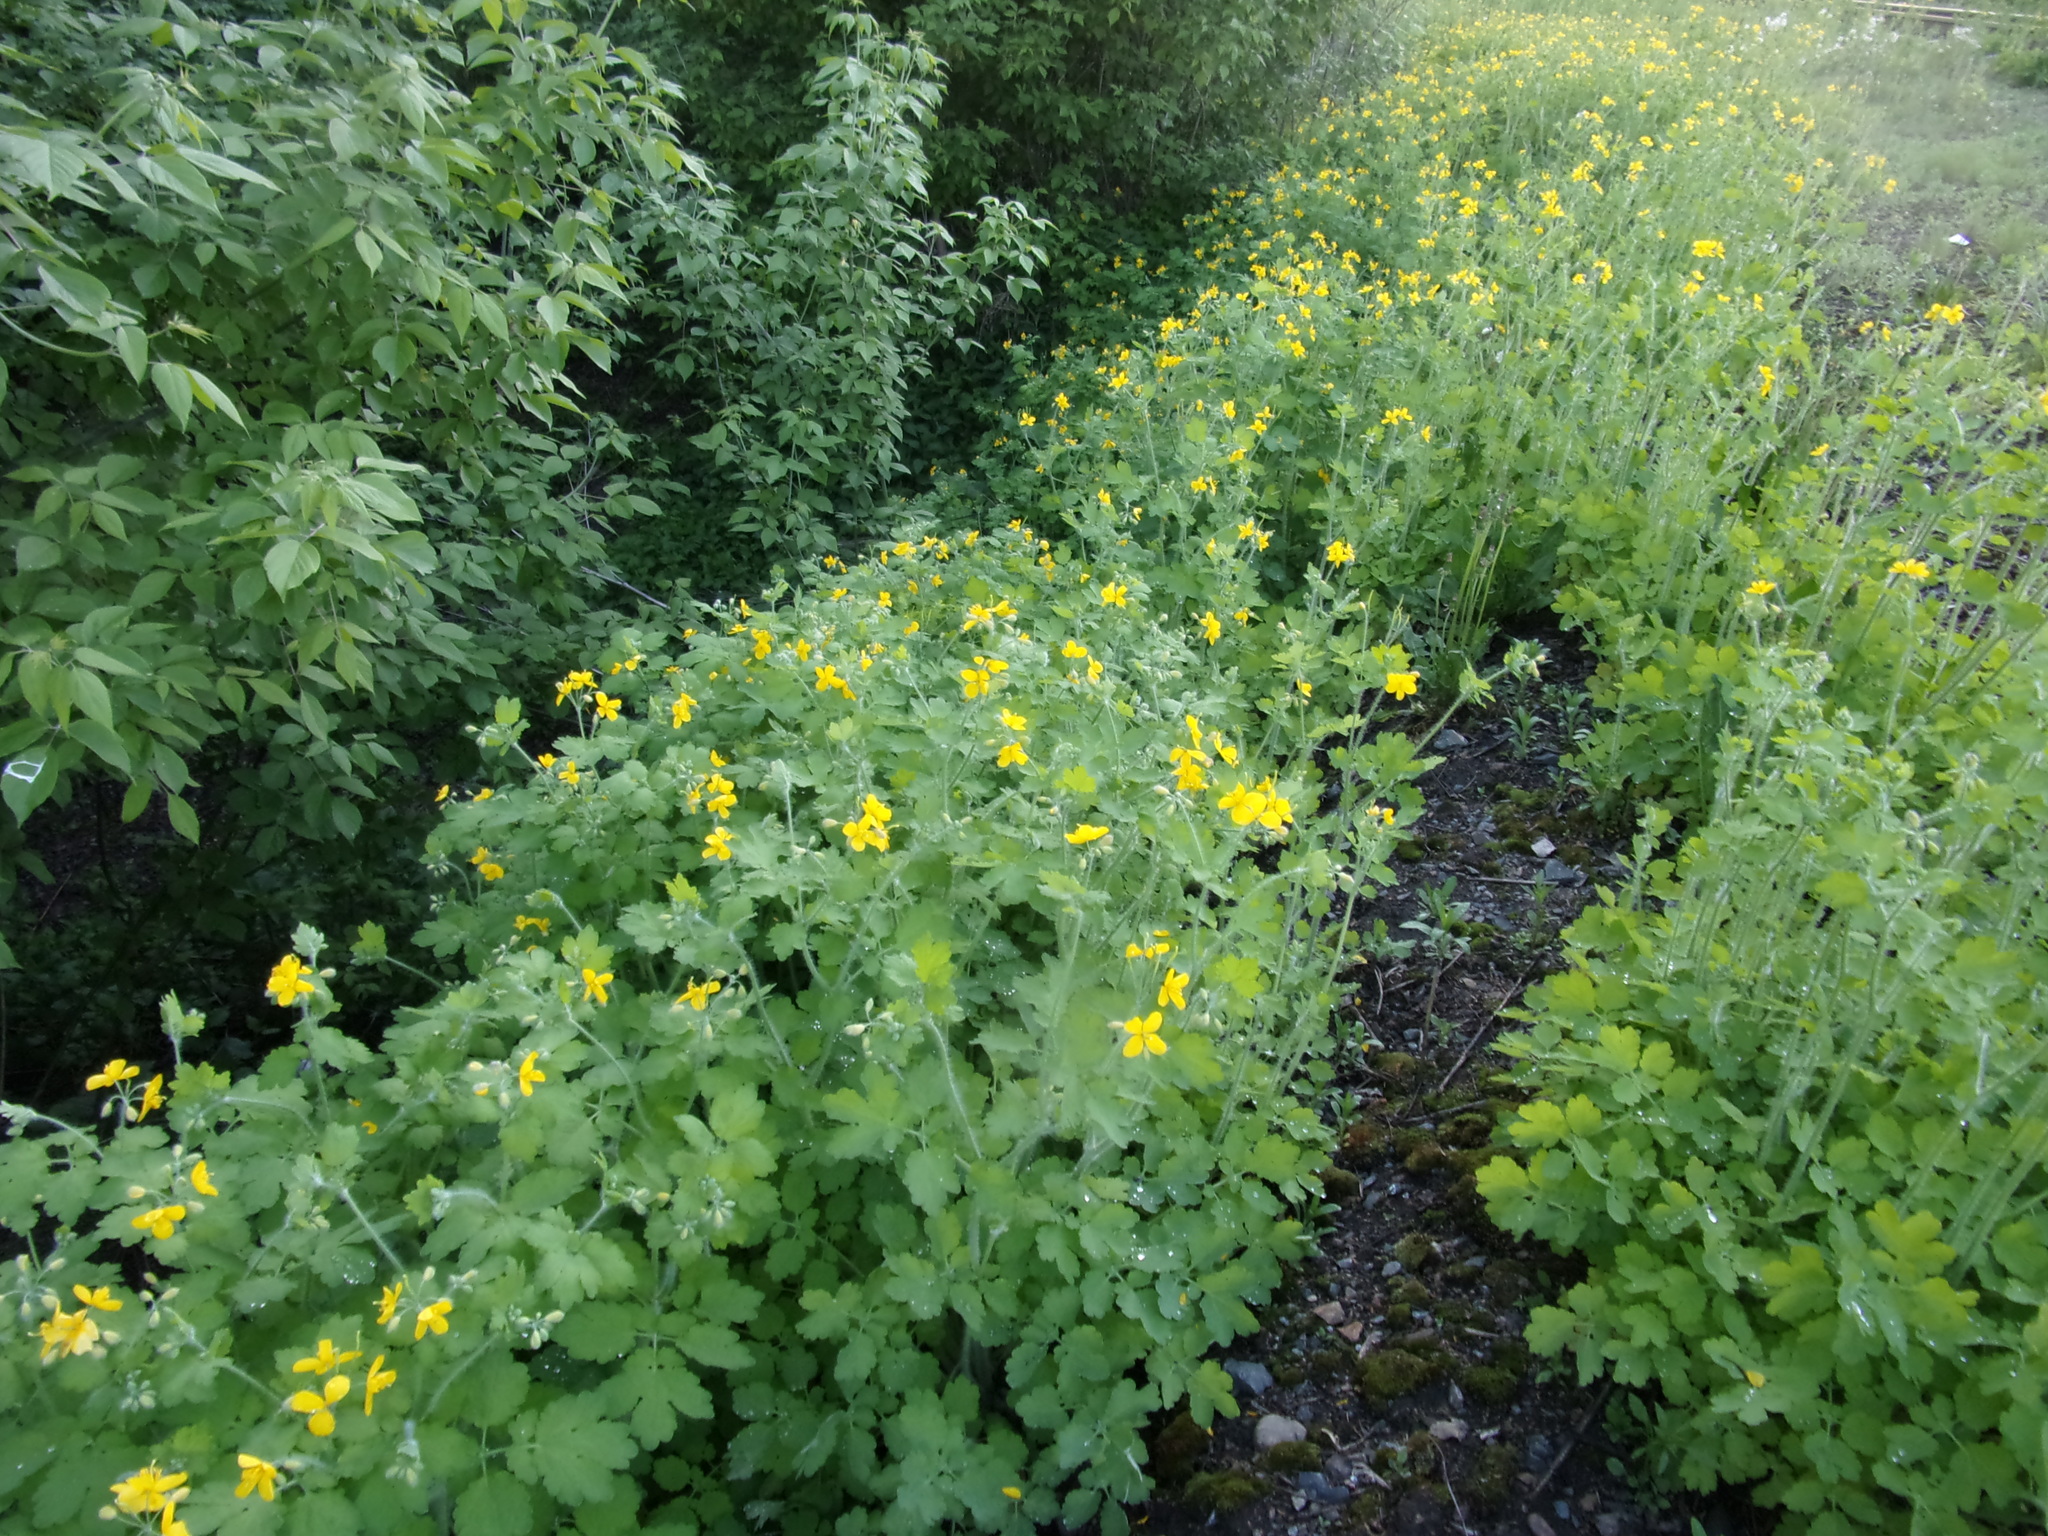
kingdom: Plantae
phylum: Tracheophyta
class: Magnoliopsida
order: Ranunculales
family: Papaveraceae
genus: Chelidonium
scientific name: Chelidonium majus
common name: Greater celandine
